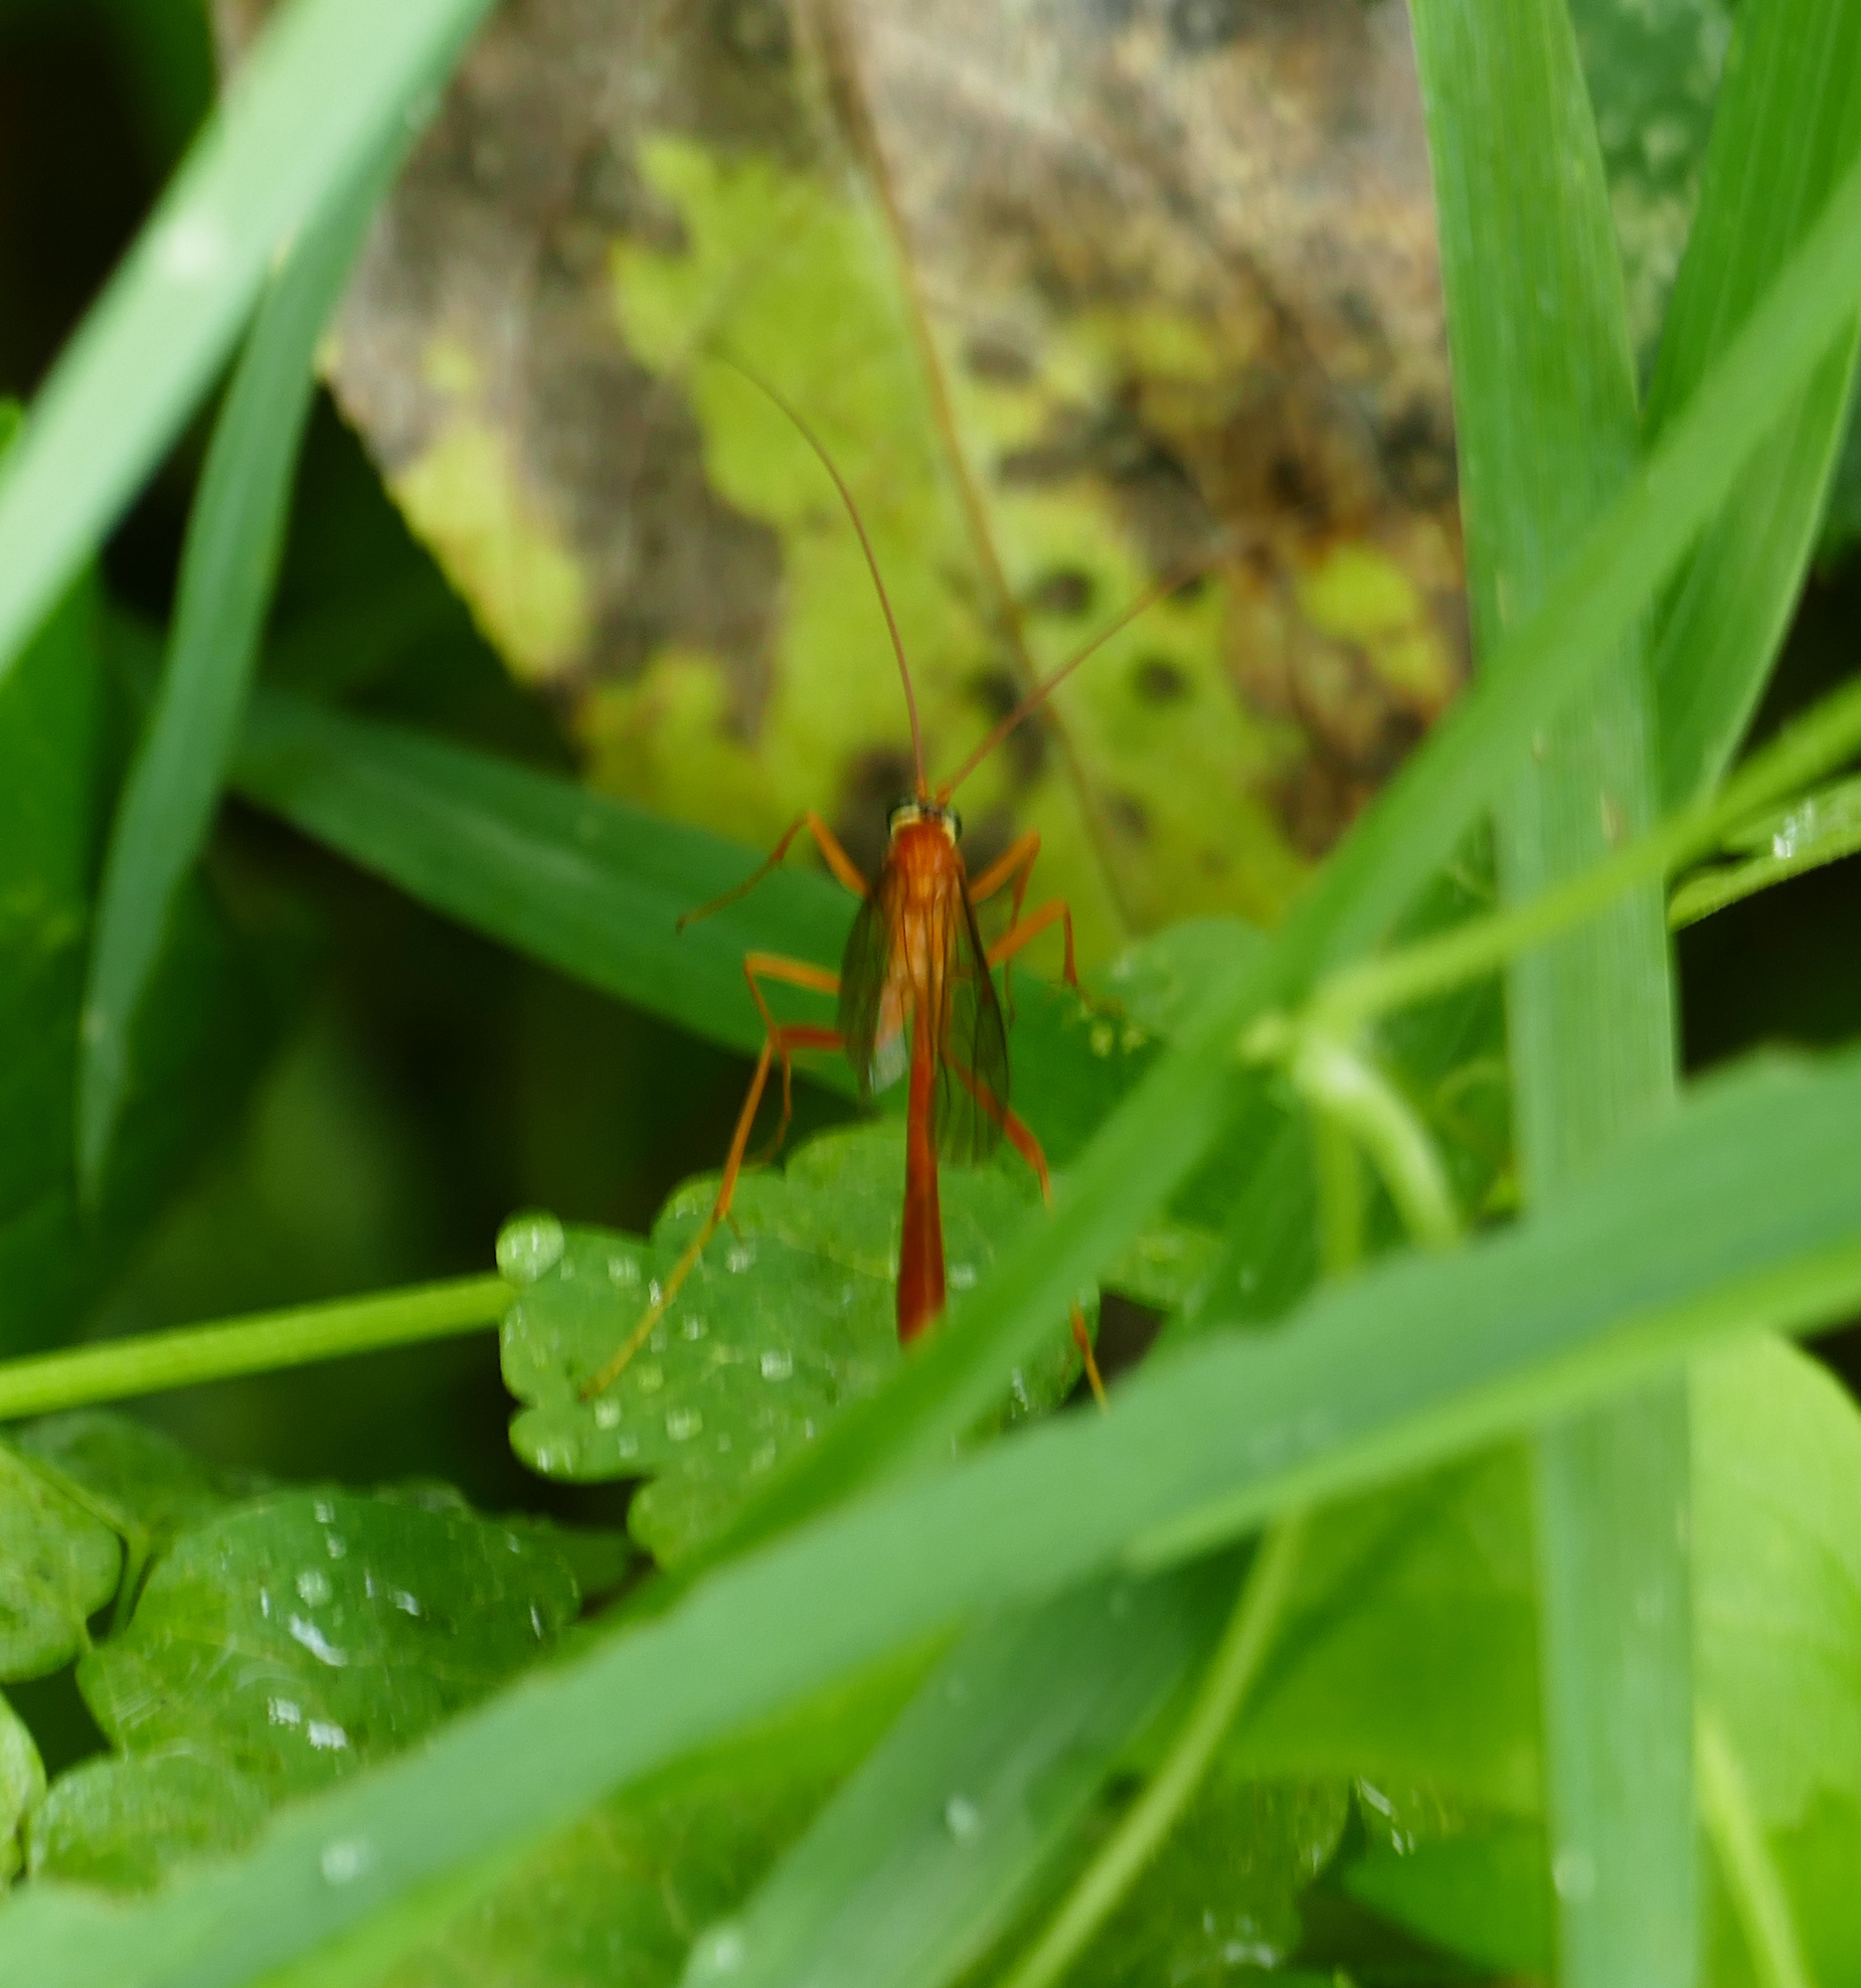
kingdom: Animalia
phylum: Arthropoda
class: Insecta
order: Hymenoptera
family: Ichneumonidae
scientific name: Ichneumonidae
